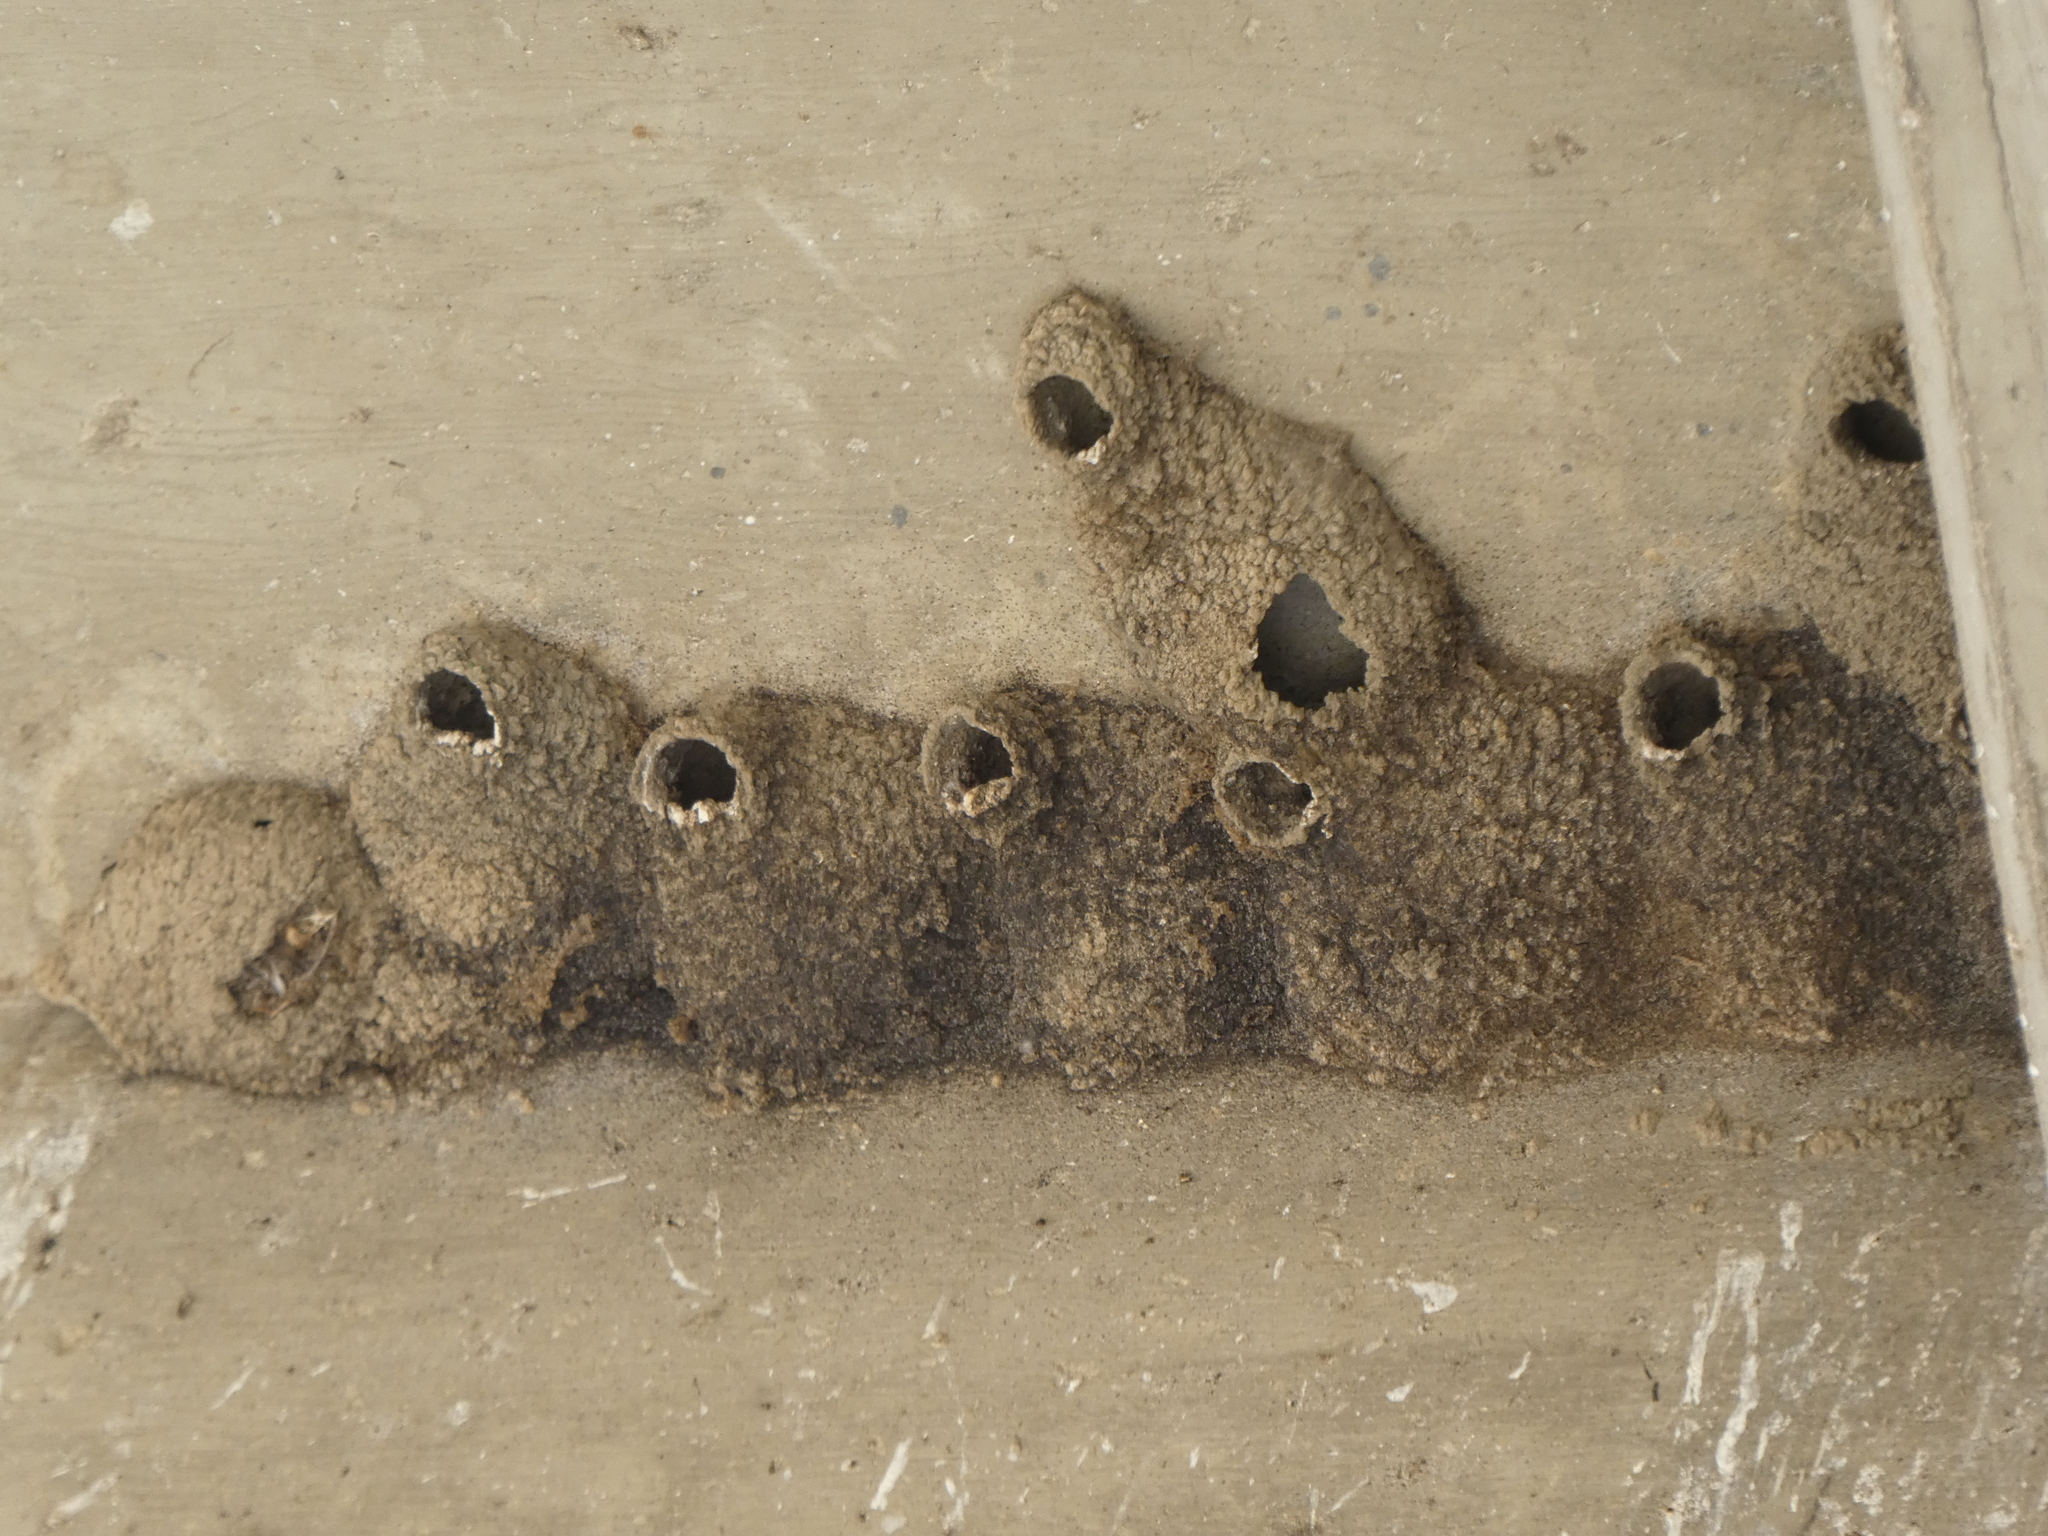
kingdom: Animalia
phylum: Chordata
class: Aves
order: Passeriformes
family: Hirundinidae
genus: Petrochelidon
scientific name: Petrochelidon pyrrhonota
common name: American cliff swallow
